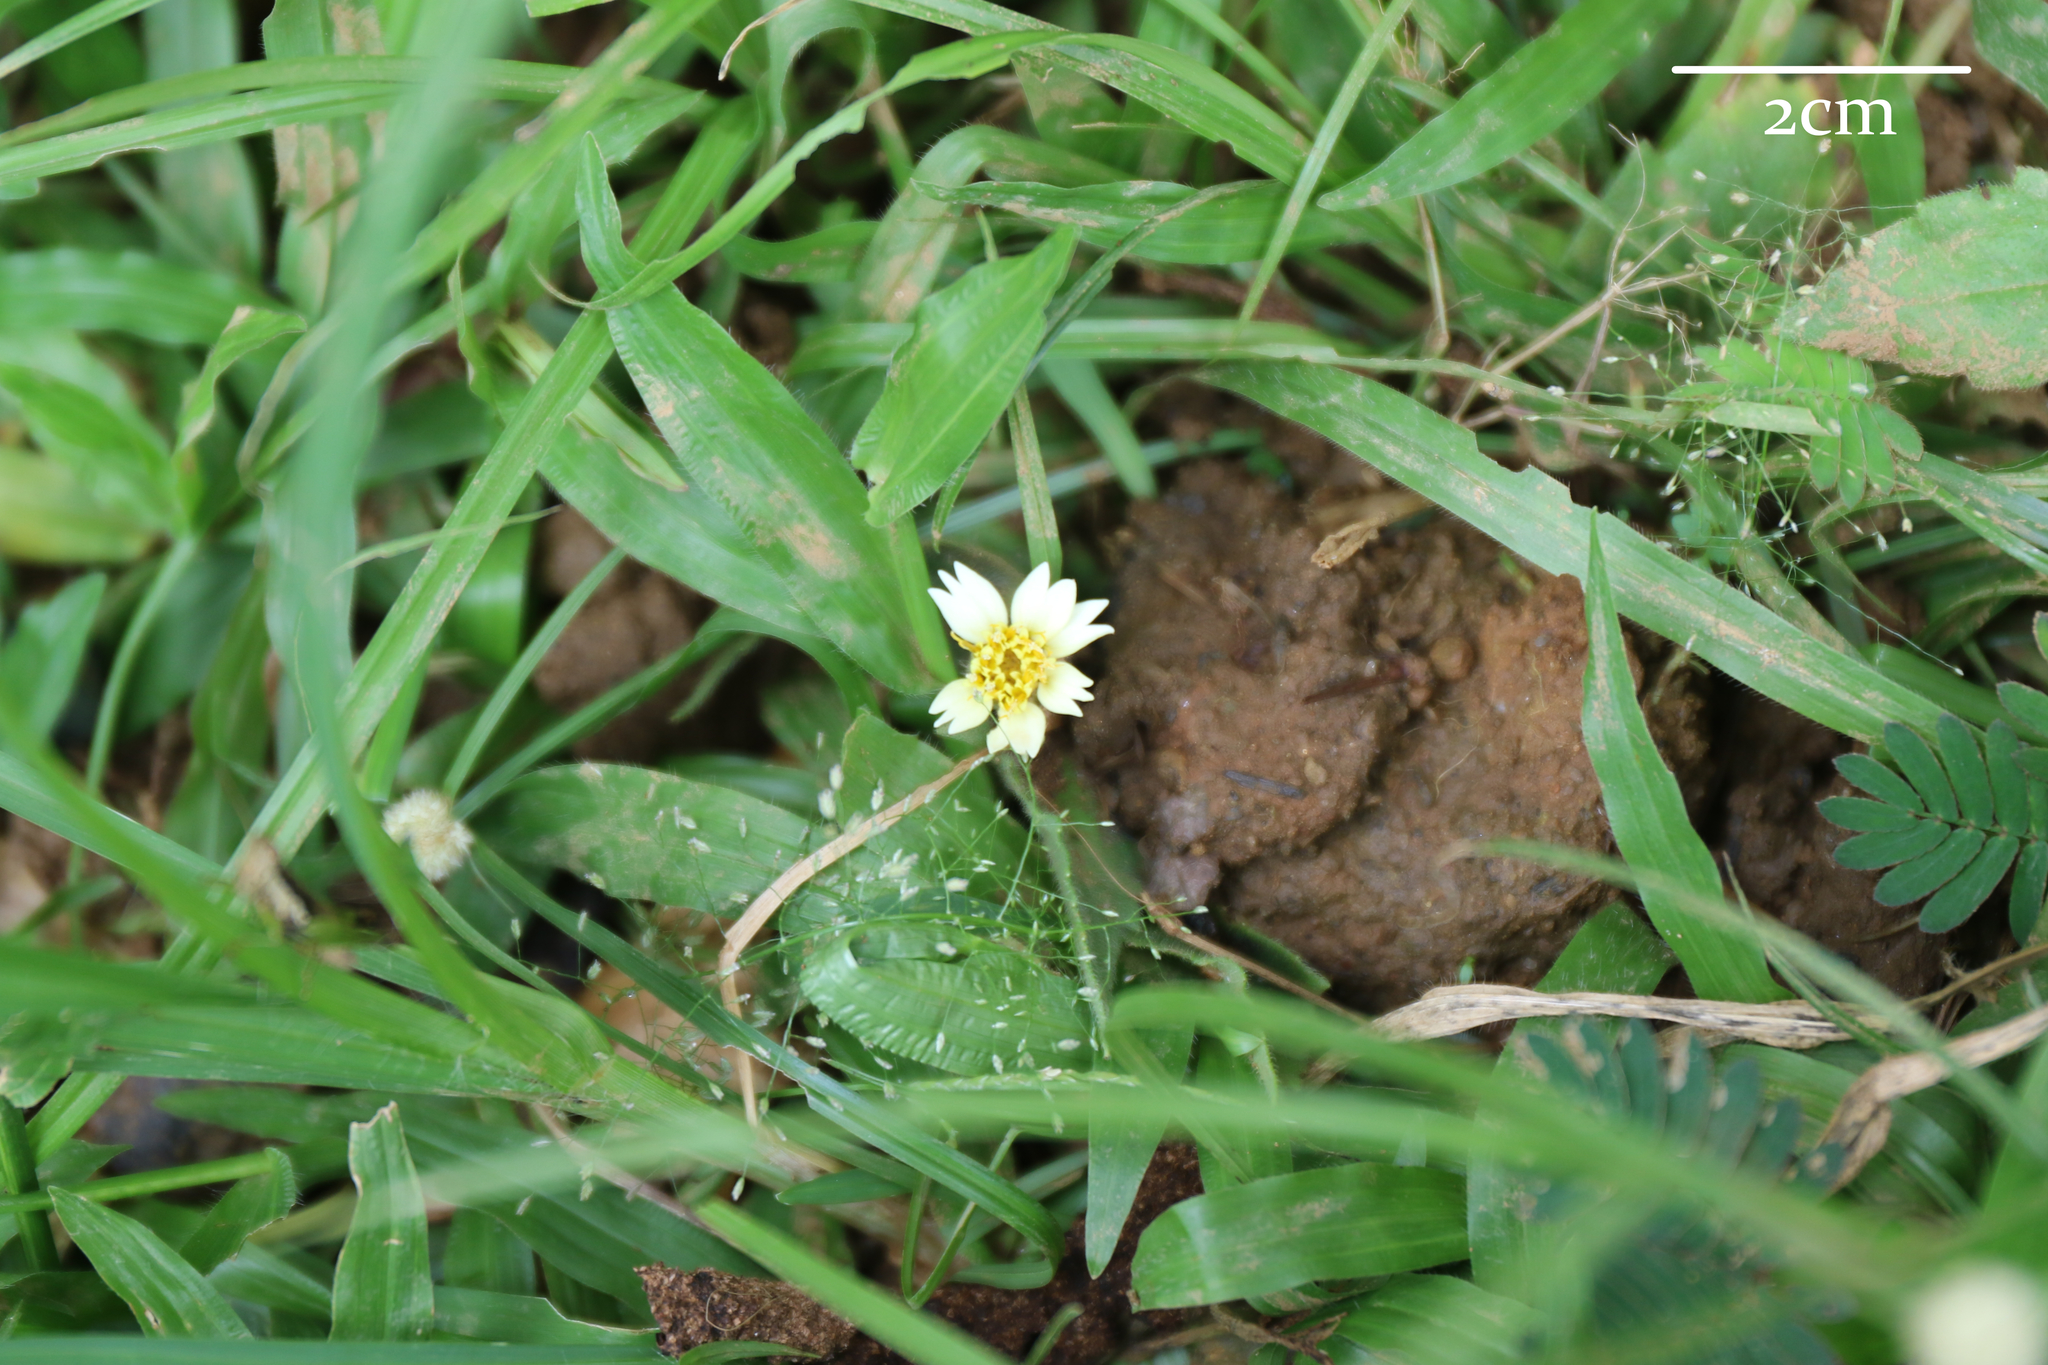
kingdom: Plantae
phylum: Tracheophyta
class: Magnoliopsida
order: Asterales
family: Asteraceae
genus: Tridax
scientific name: Tridax procumbens
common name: Coatbuttons
